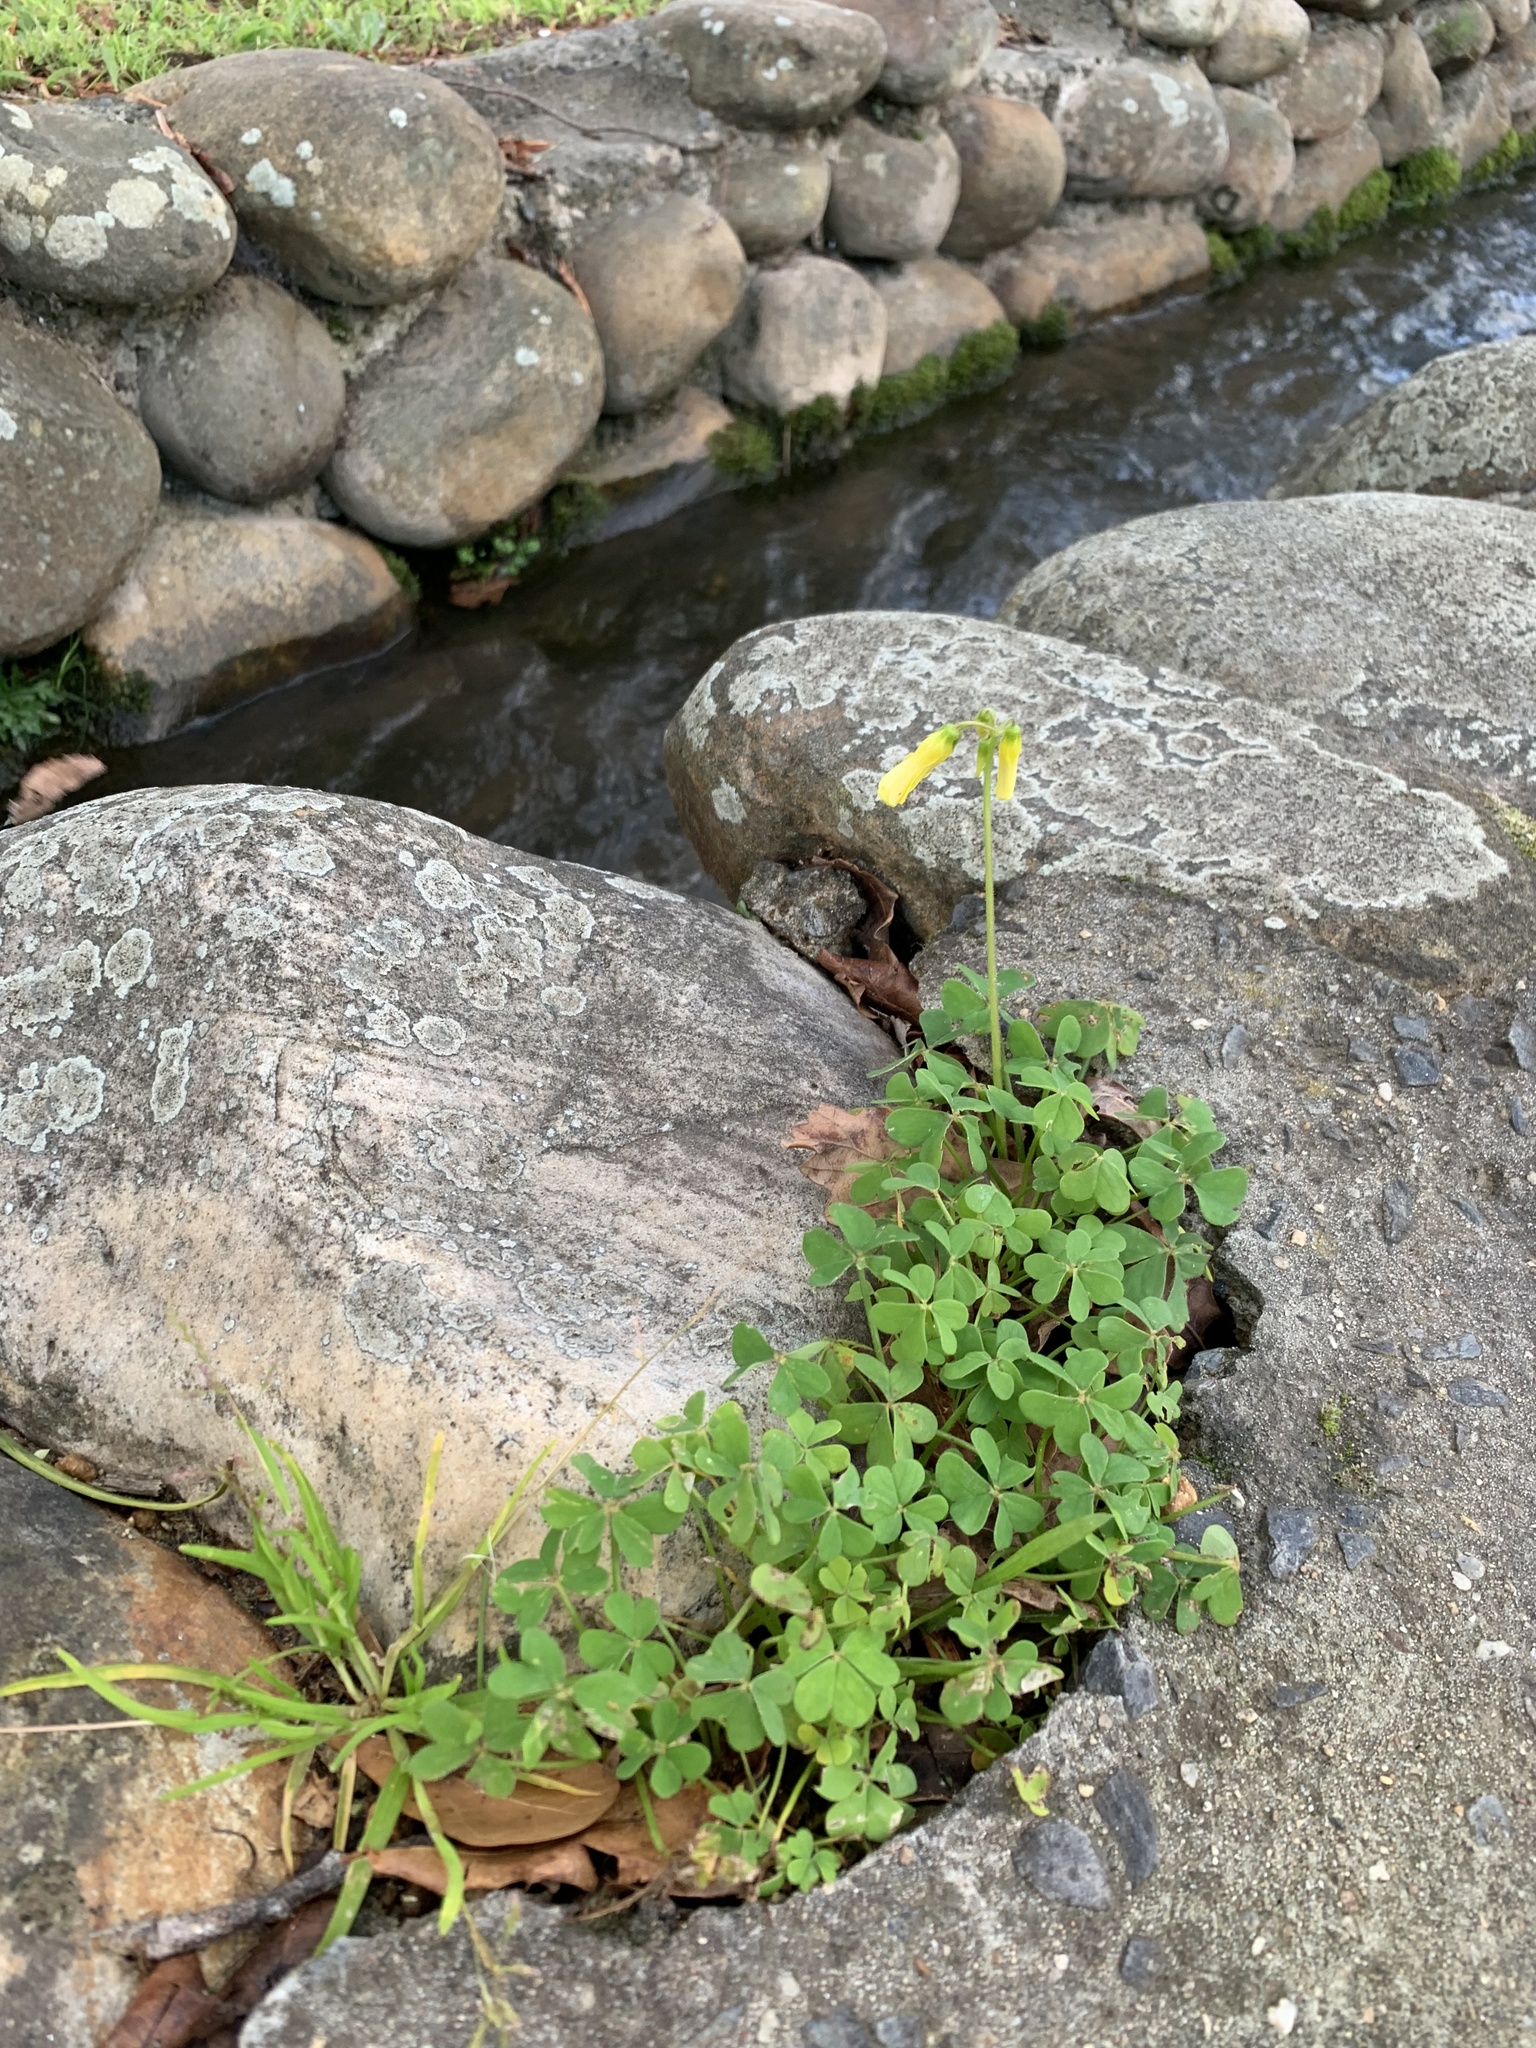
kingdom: Plantae
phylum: Tracheophyta
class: Magnoliopsida
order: Oxalidales
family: Oxalidaceae
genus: Oxalis
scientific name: Oxalis pes-caprae
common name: Bermuda-buttercup
